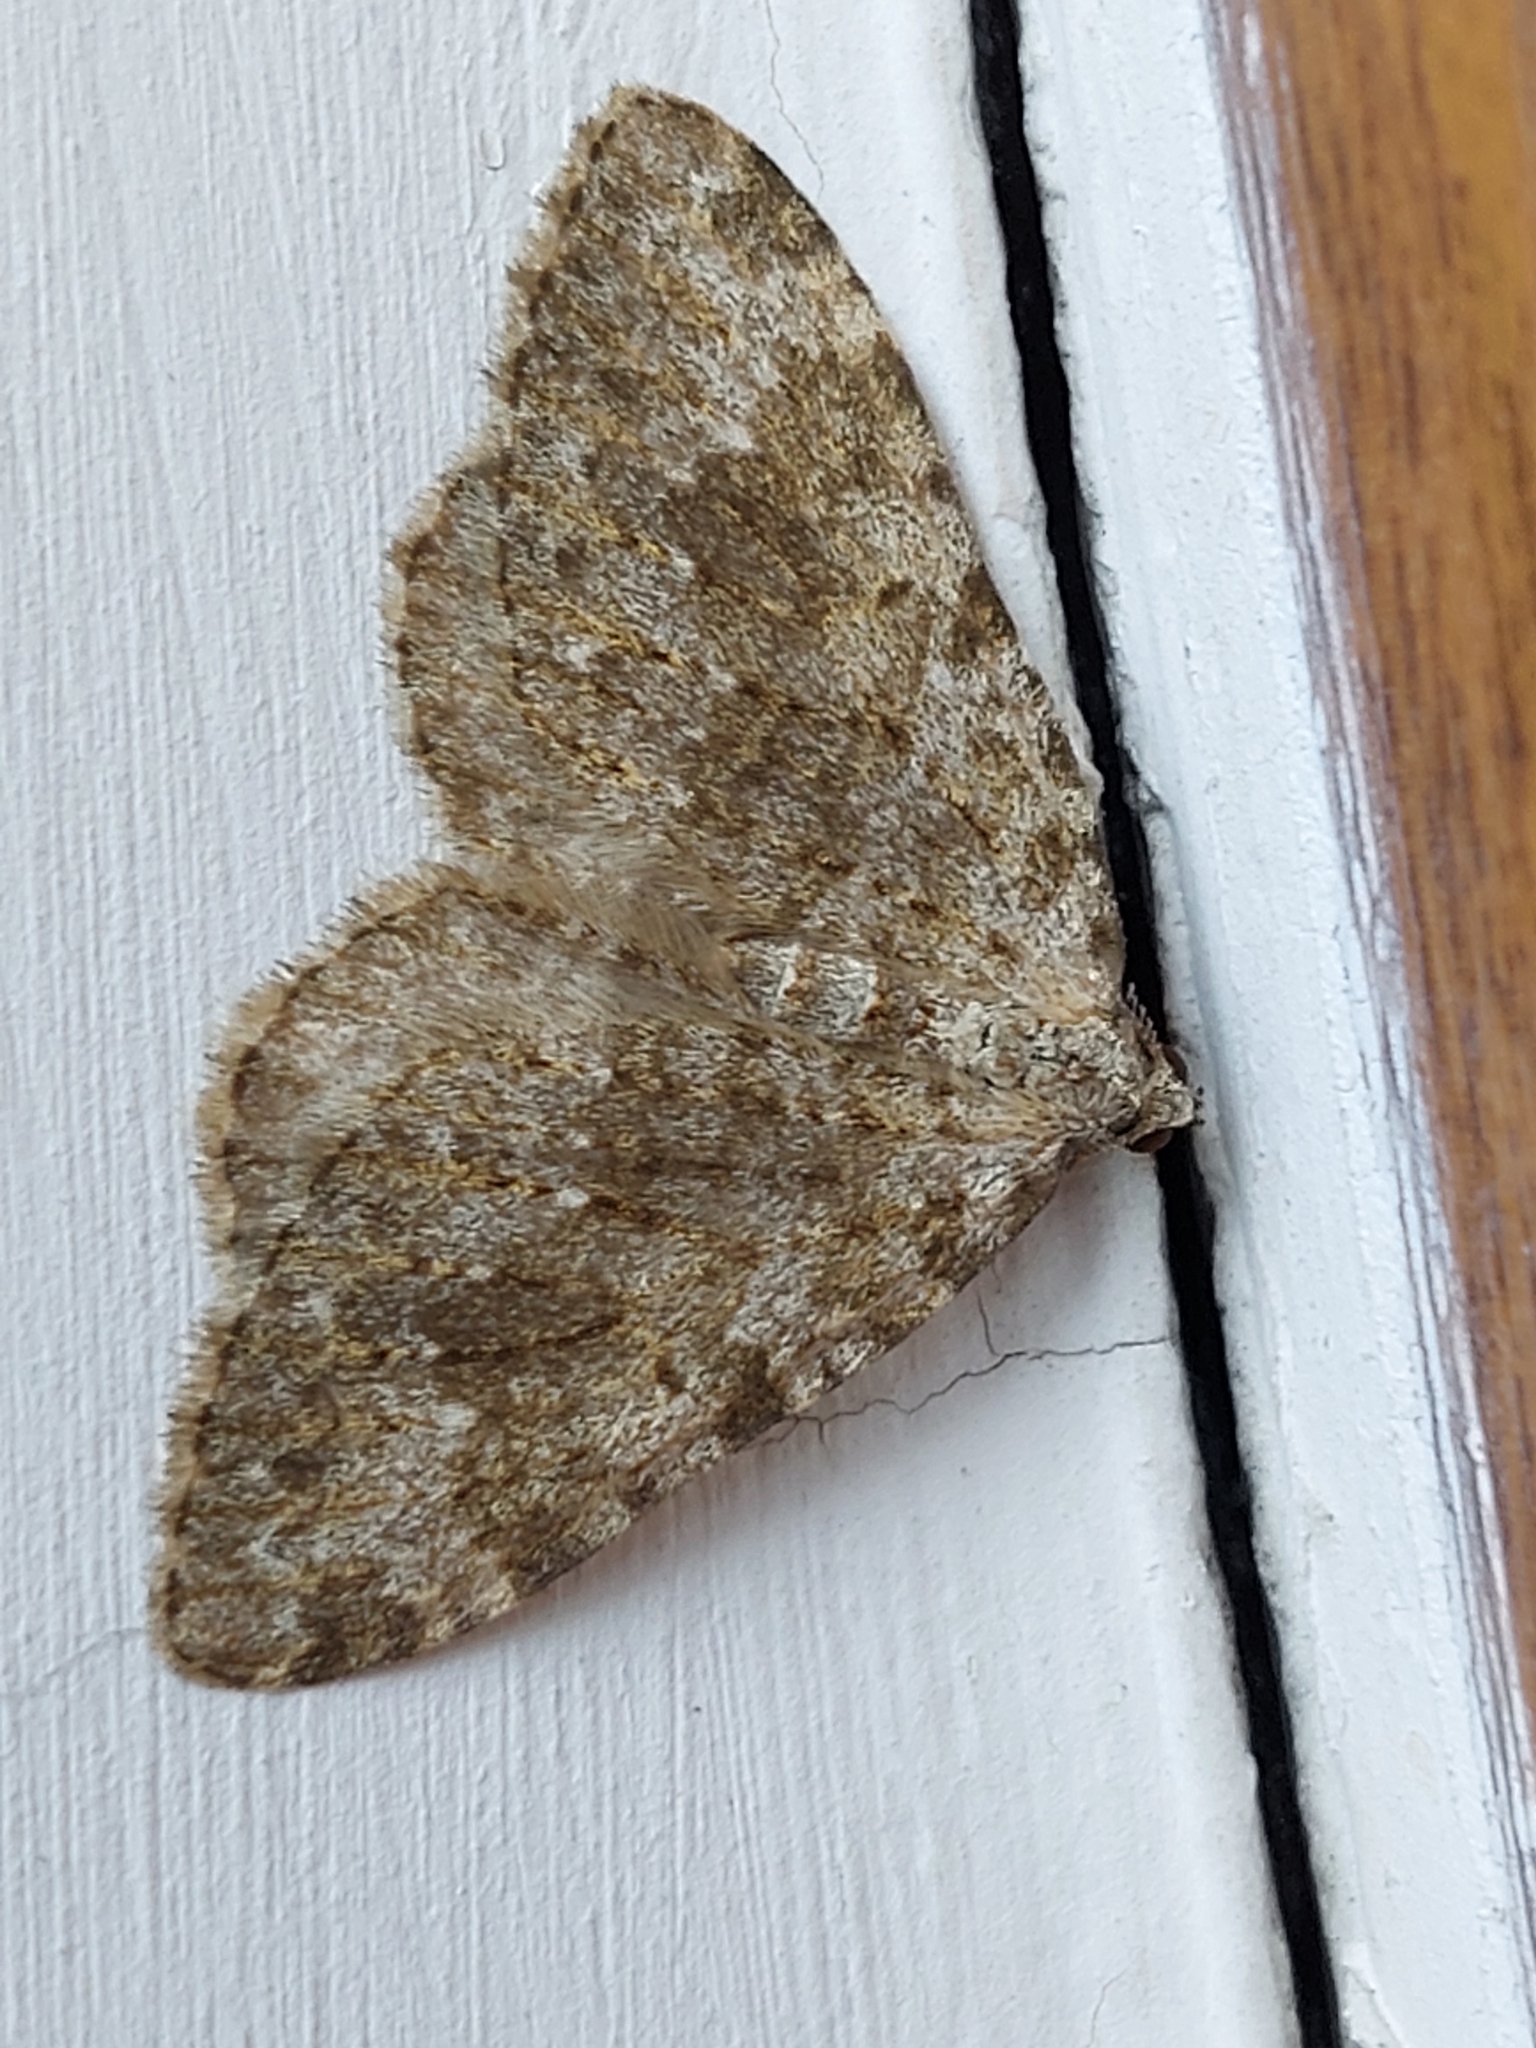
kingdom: Animalia
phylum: Arthropoda
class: Insecta
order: Lepidoptera
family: Geometridae
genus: Nebula
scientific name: Nebula salicata
